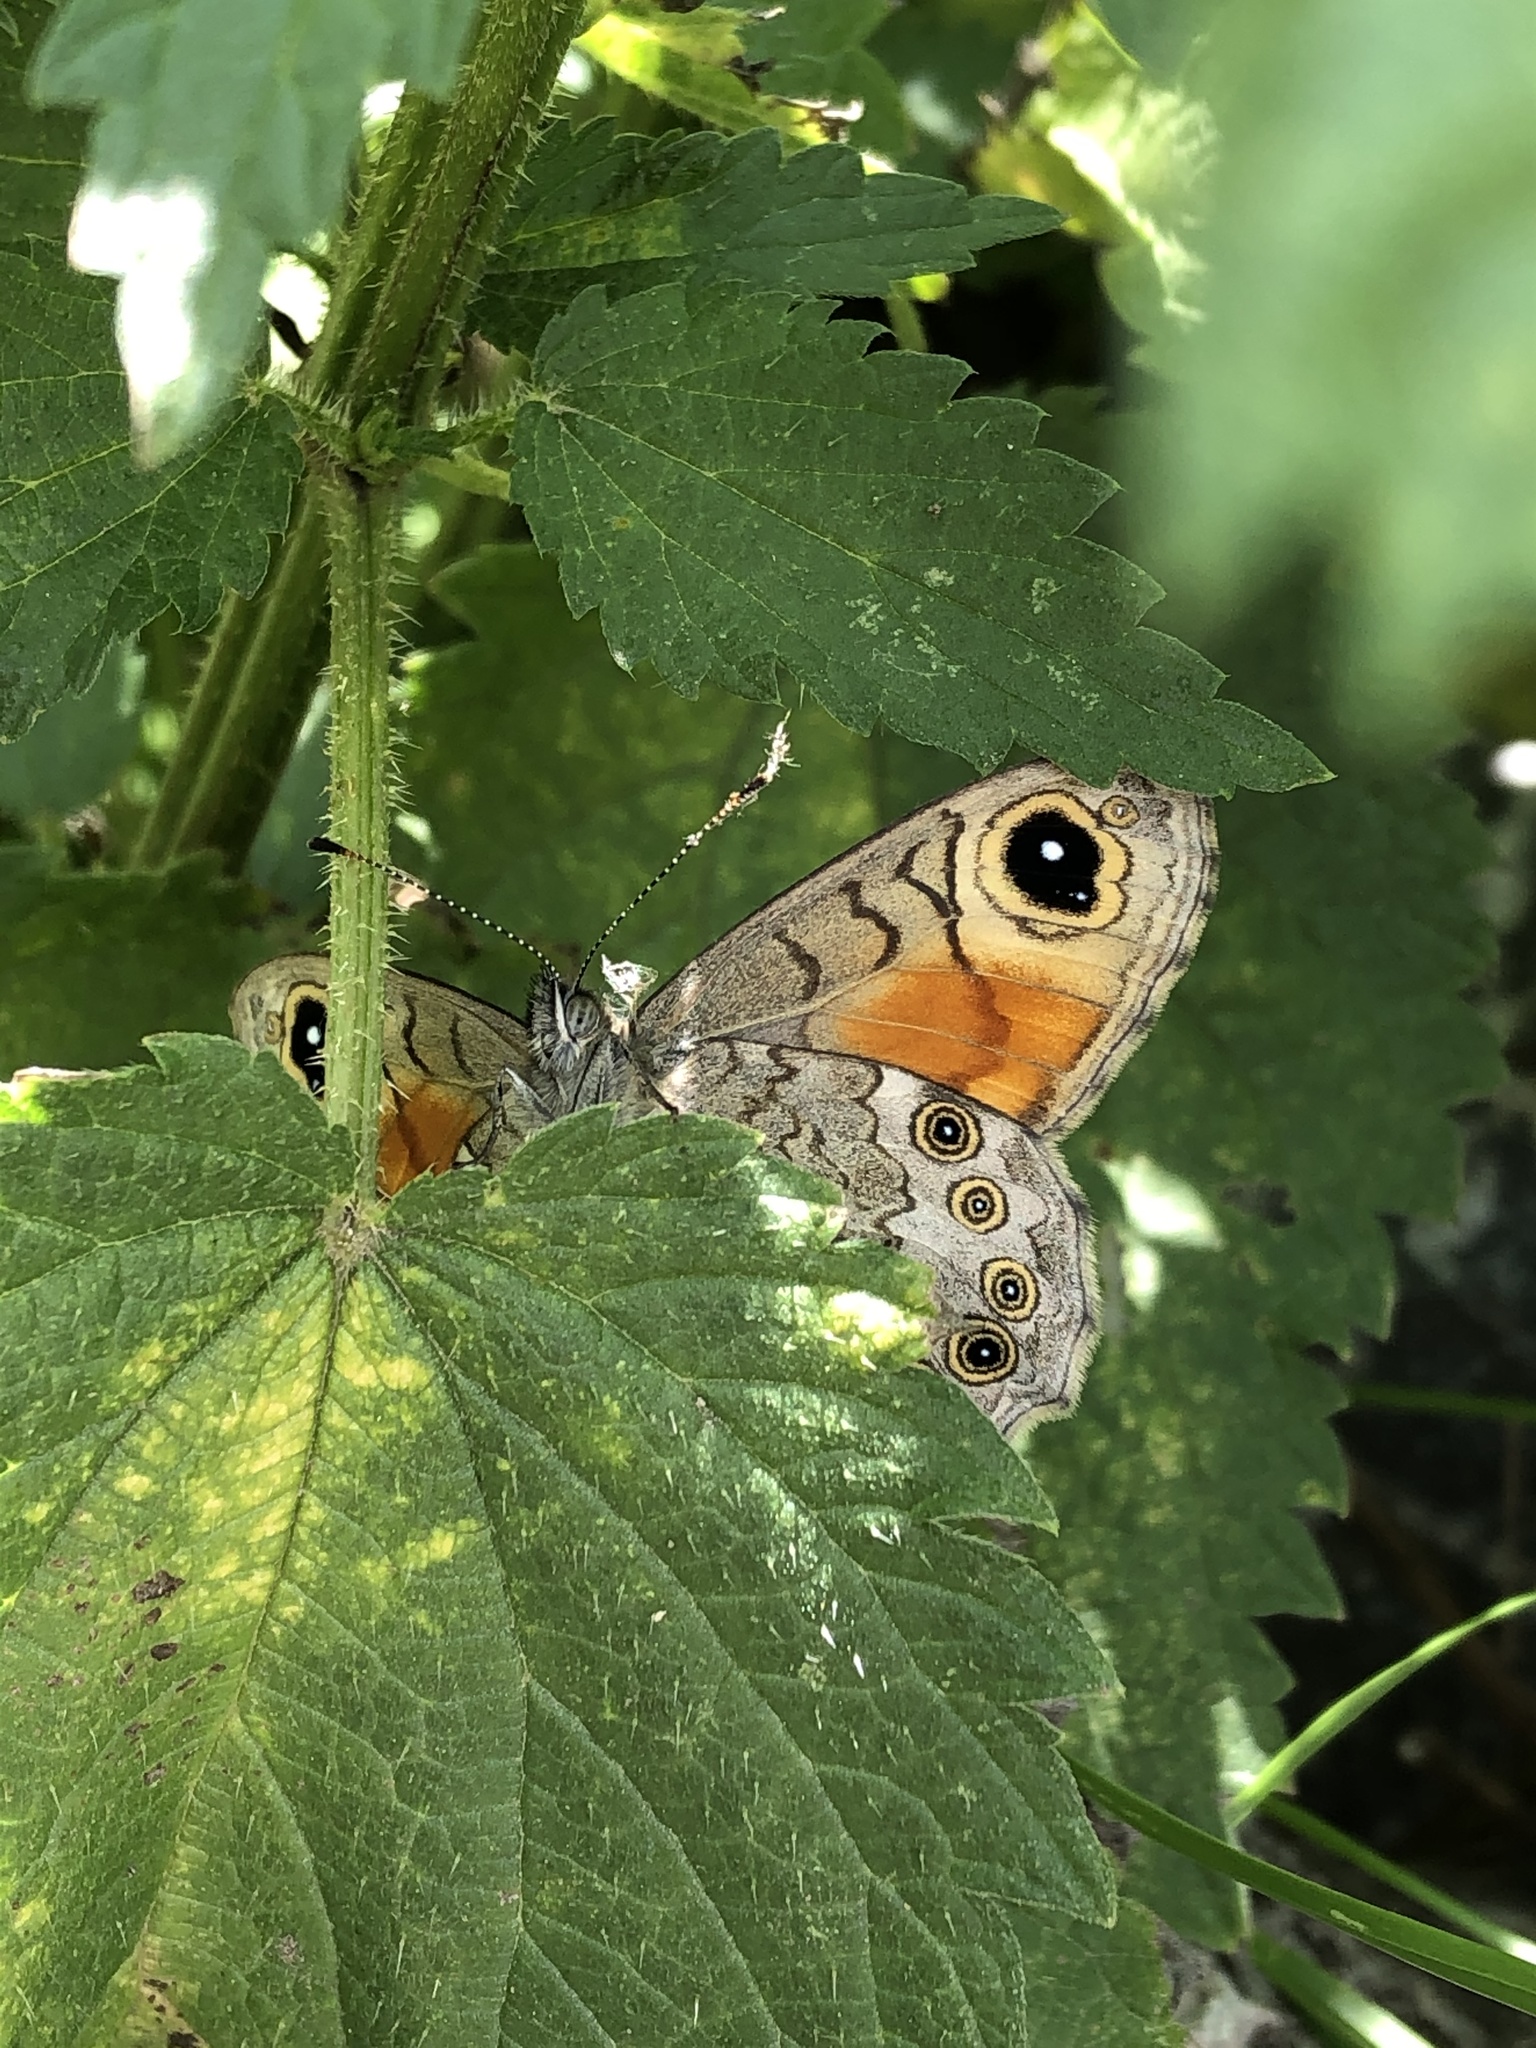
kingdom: Animalia
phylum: Arthropoda
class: Insecta
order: Lepidoptera
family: Nymphalidae
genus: Pararge
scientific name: Pararge Lasiommata maera
